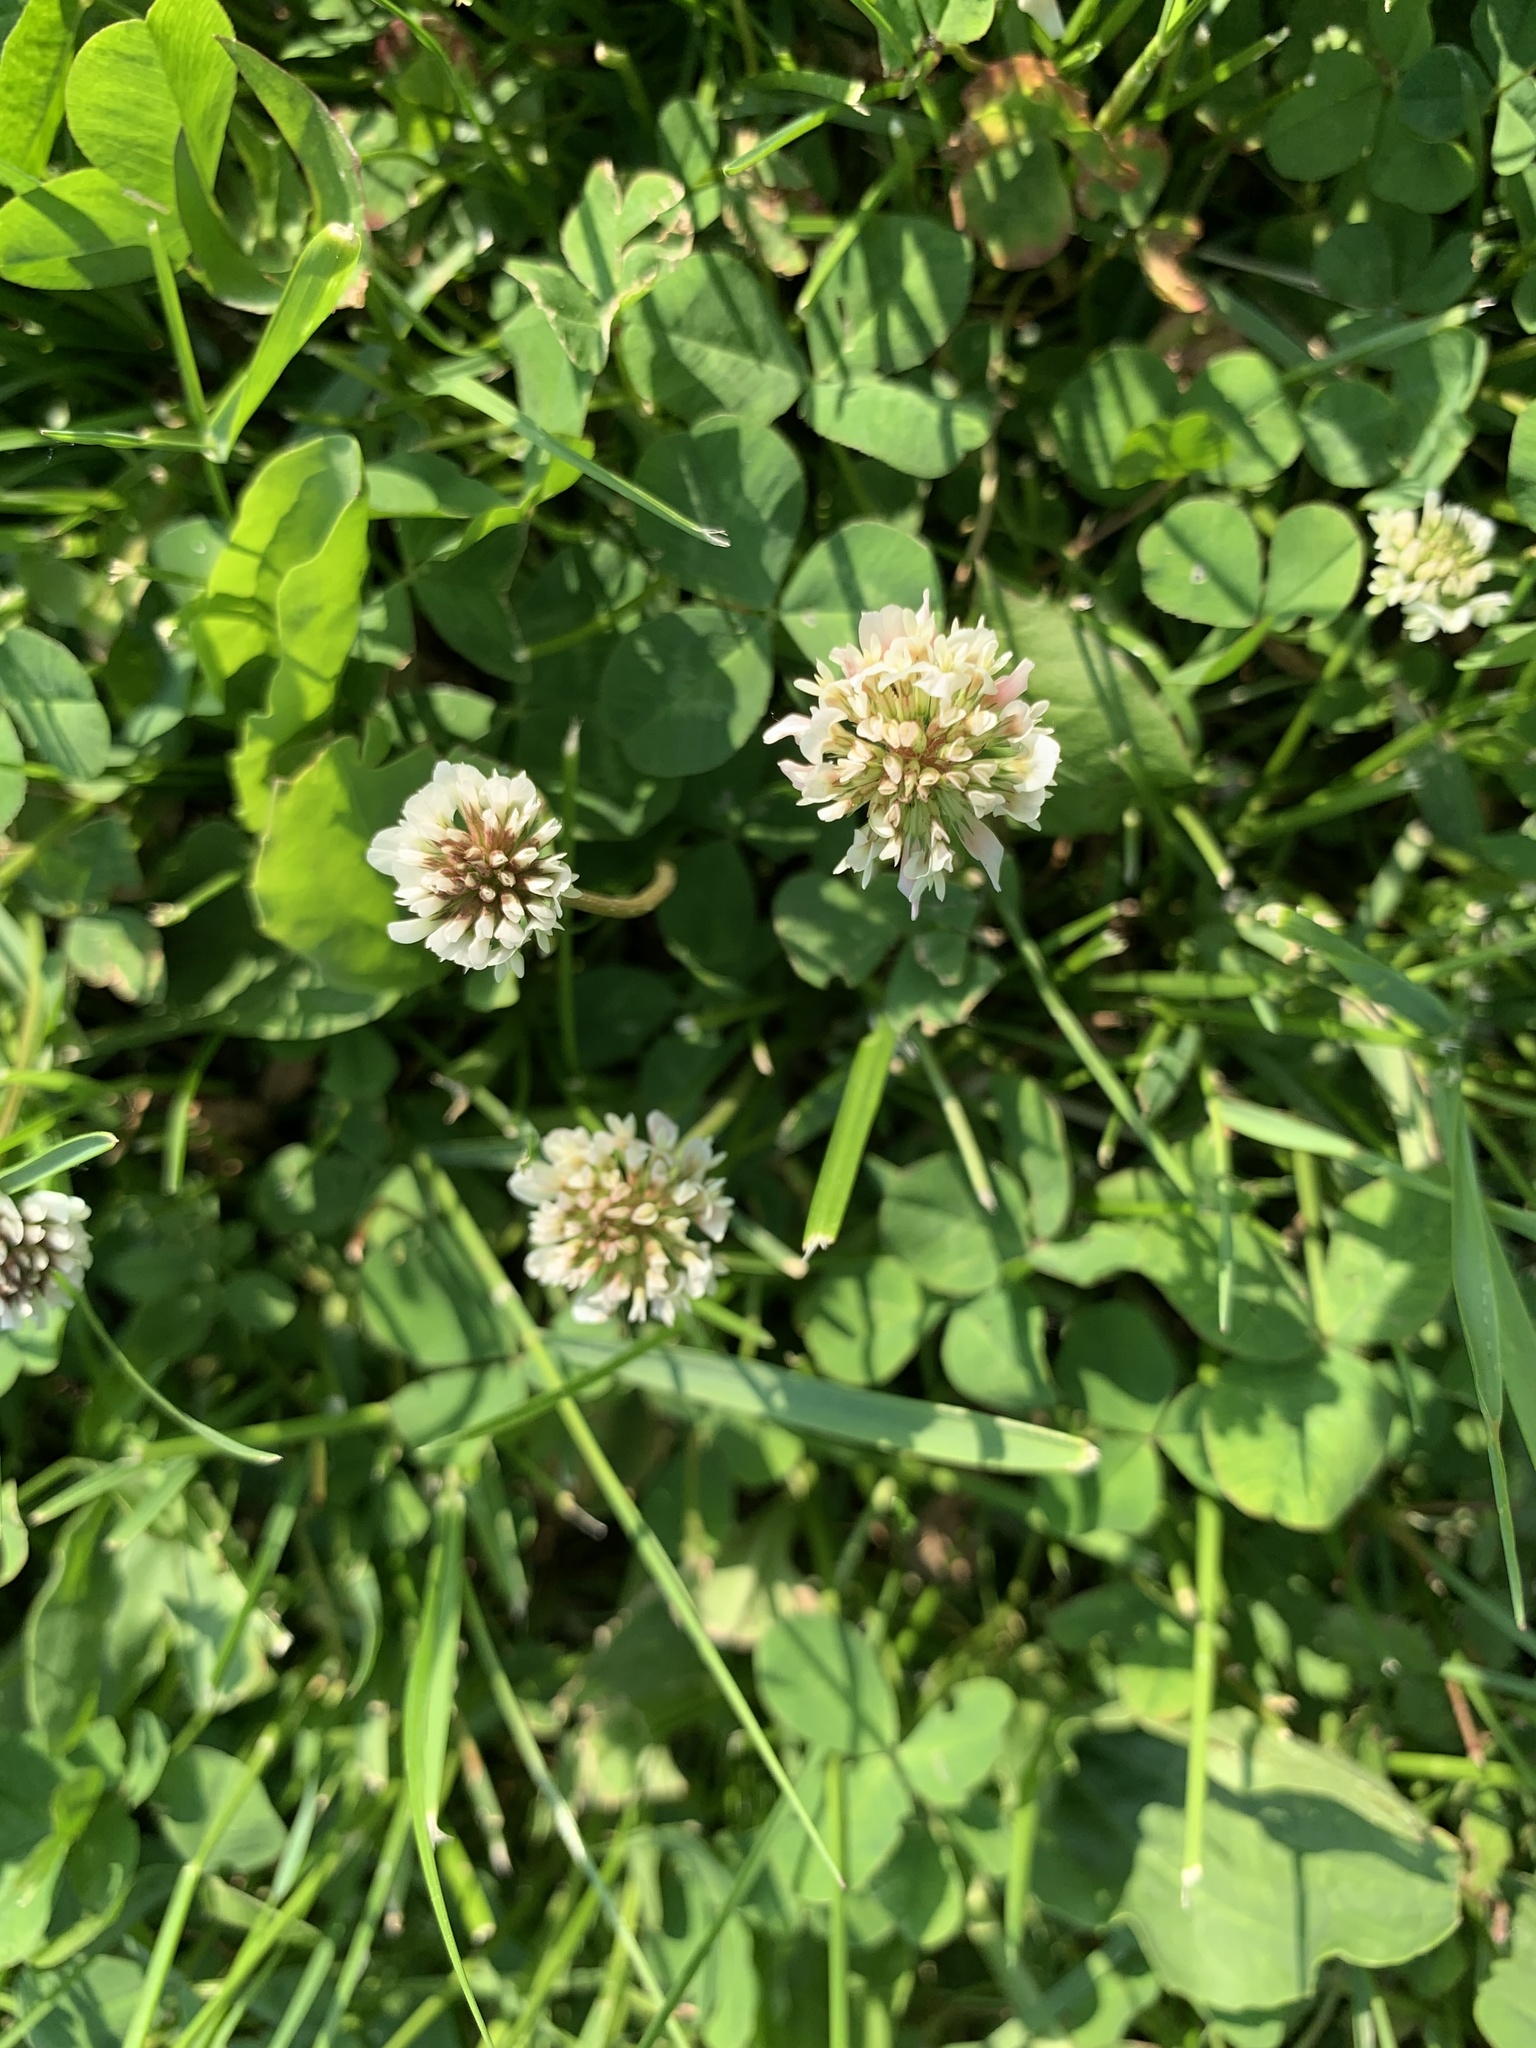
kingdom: Plantae
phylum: Tracheophyta
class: Magnoliopsida
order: Fabales
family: Fabaceae
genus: Trifolium
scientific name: Trifolium repens
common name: White clover
